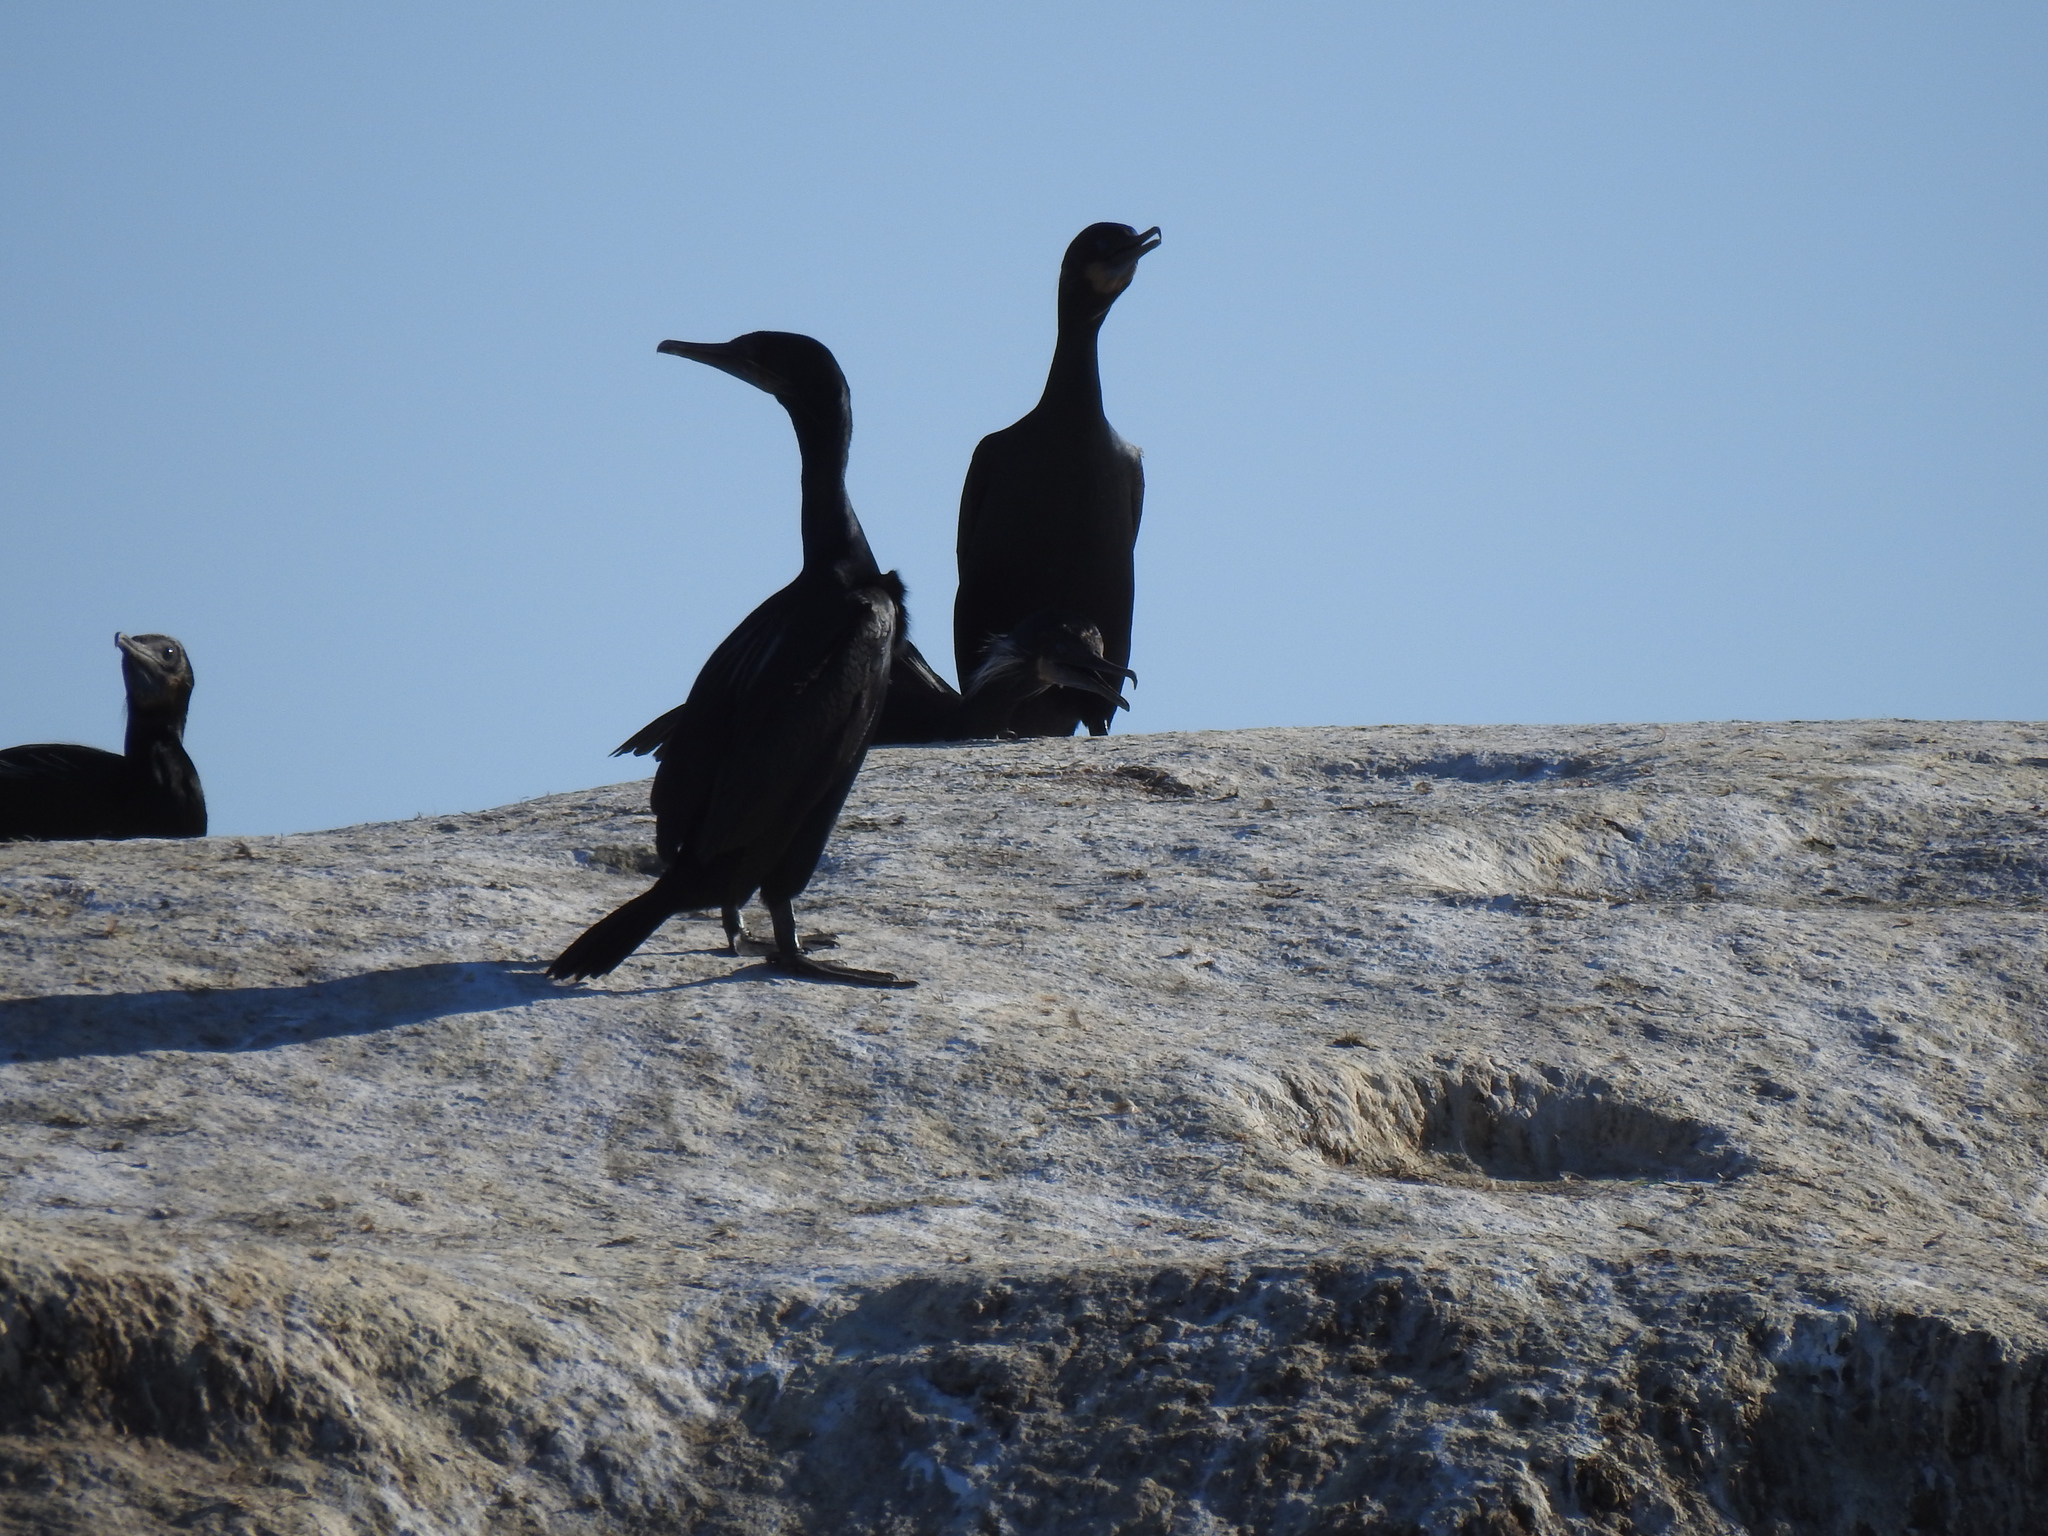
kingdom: Animalia
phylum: Chordata
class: Aves
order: Suliformes
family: Phalacrocoracidae
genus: Urile
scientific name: Urile penicillatus
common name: Brandt's cormorant
